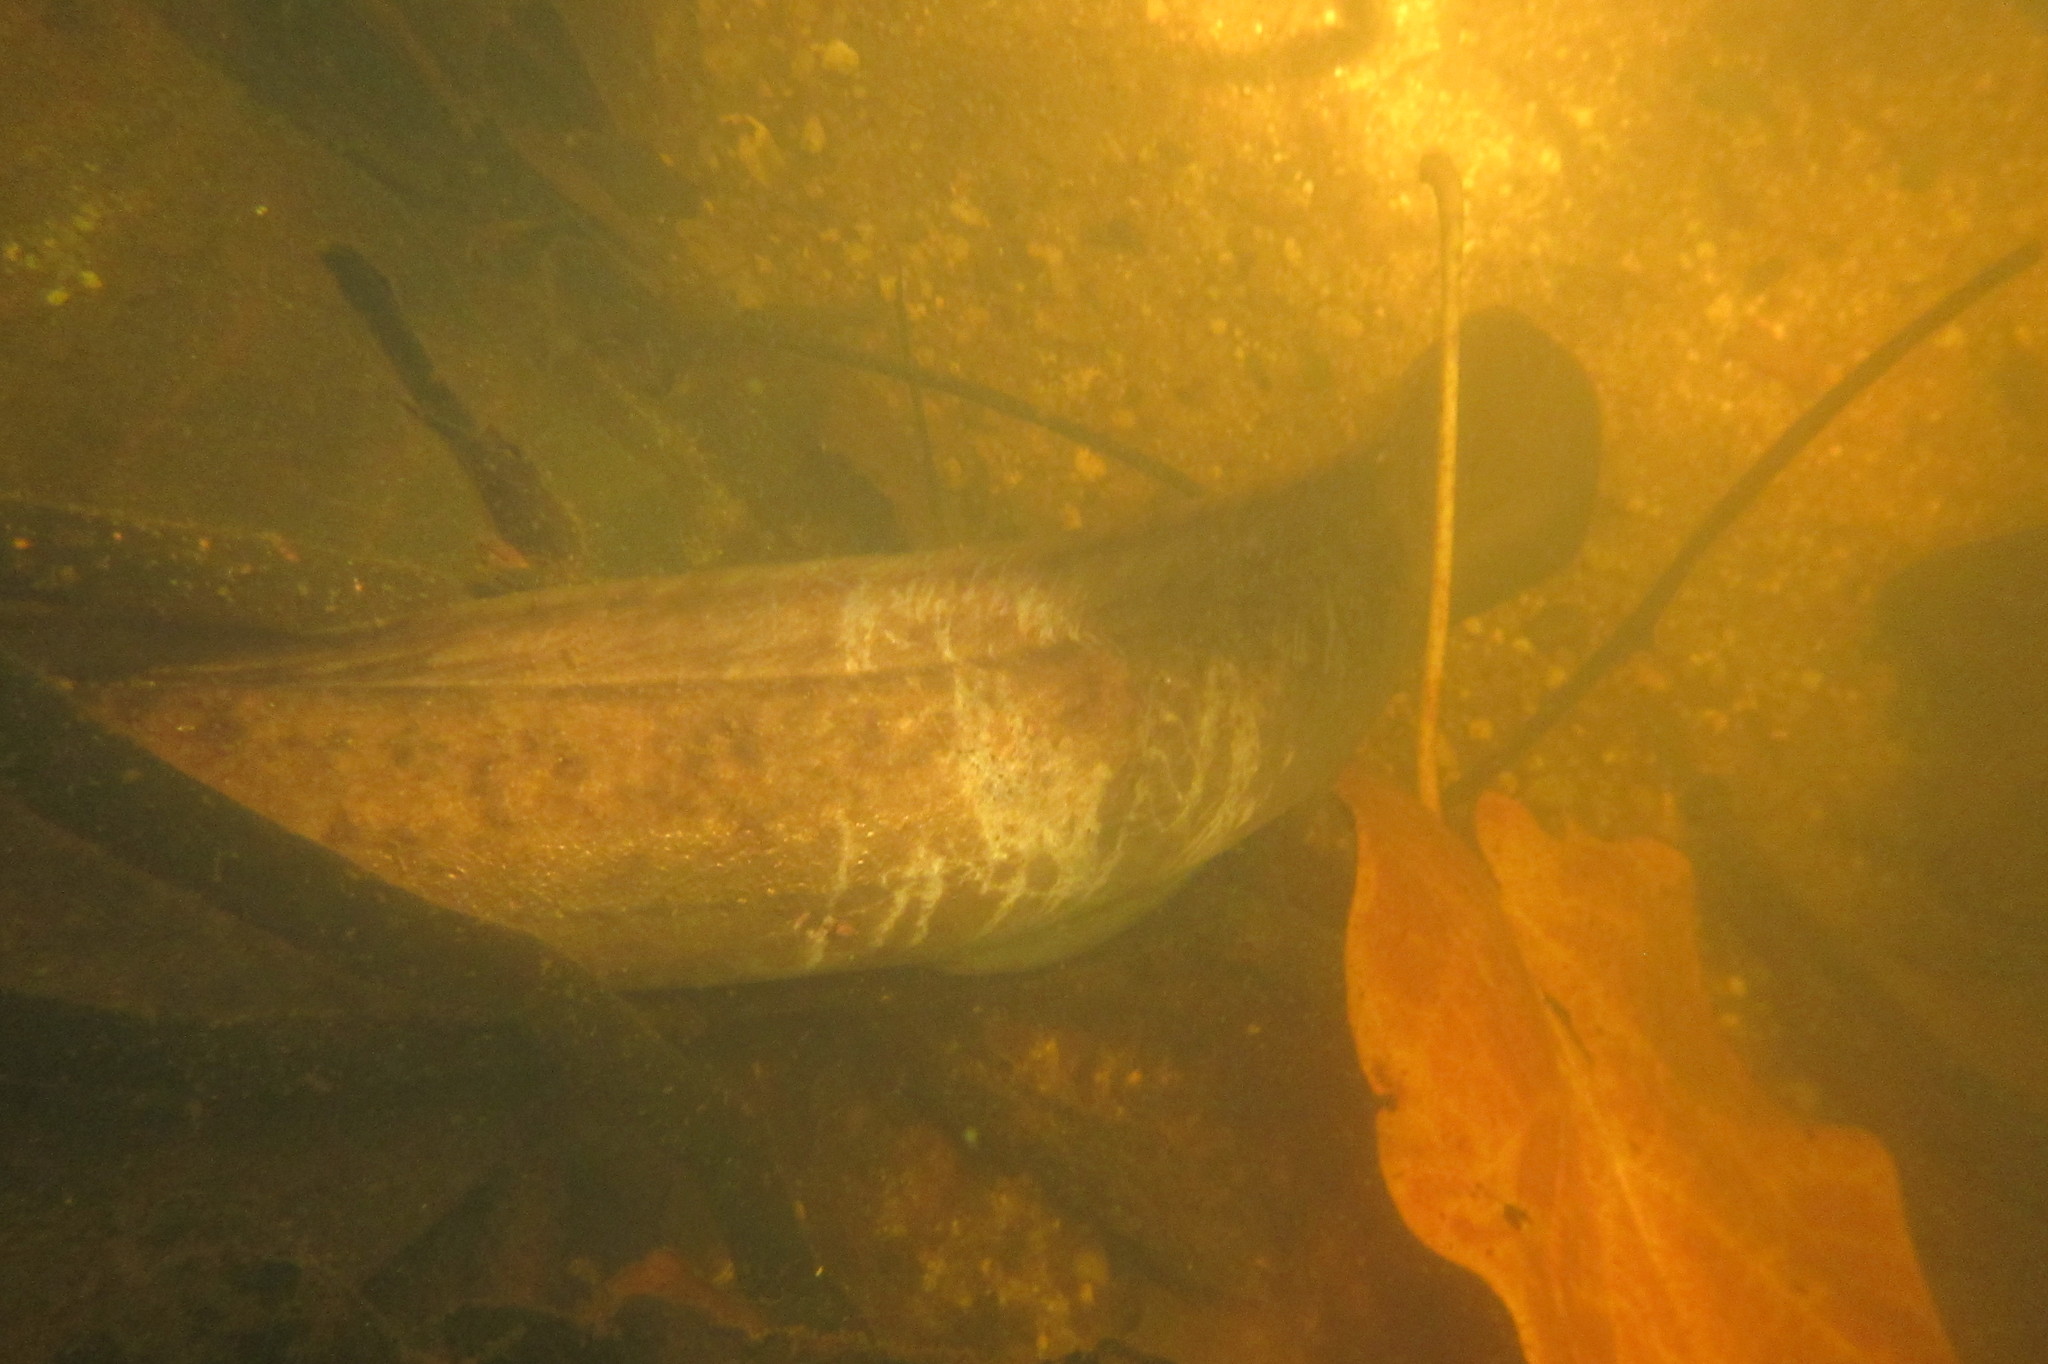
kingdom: Animalia
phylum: Chordata
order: Anguilliformes
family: Anguillidae
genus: Anguilla
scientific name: Anguilla reinhardtii
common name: Longfin eel
